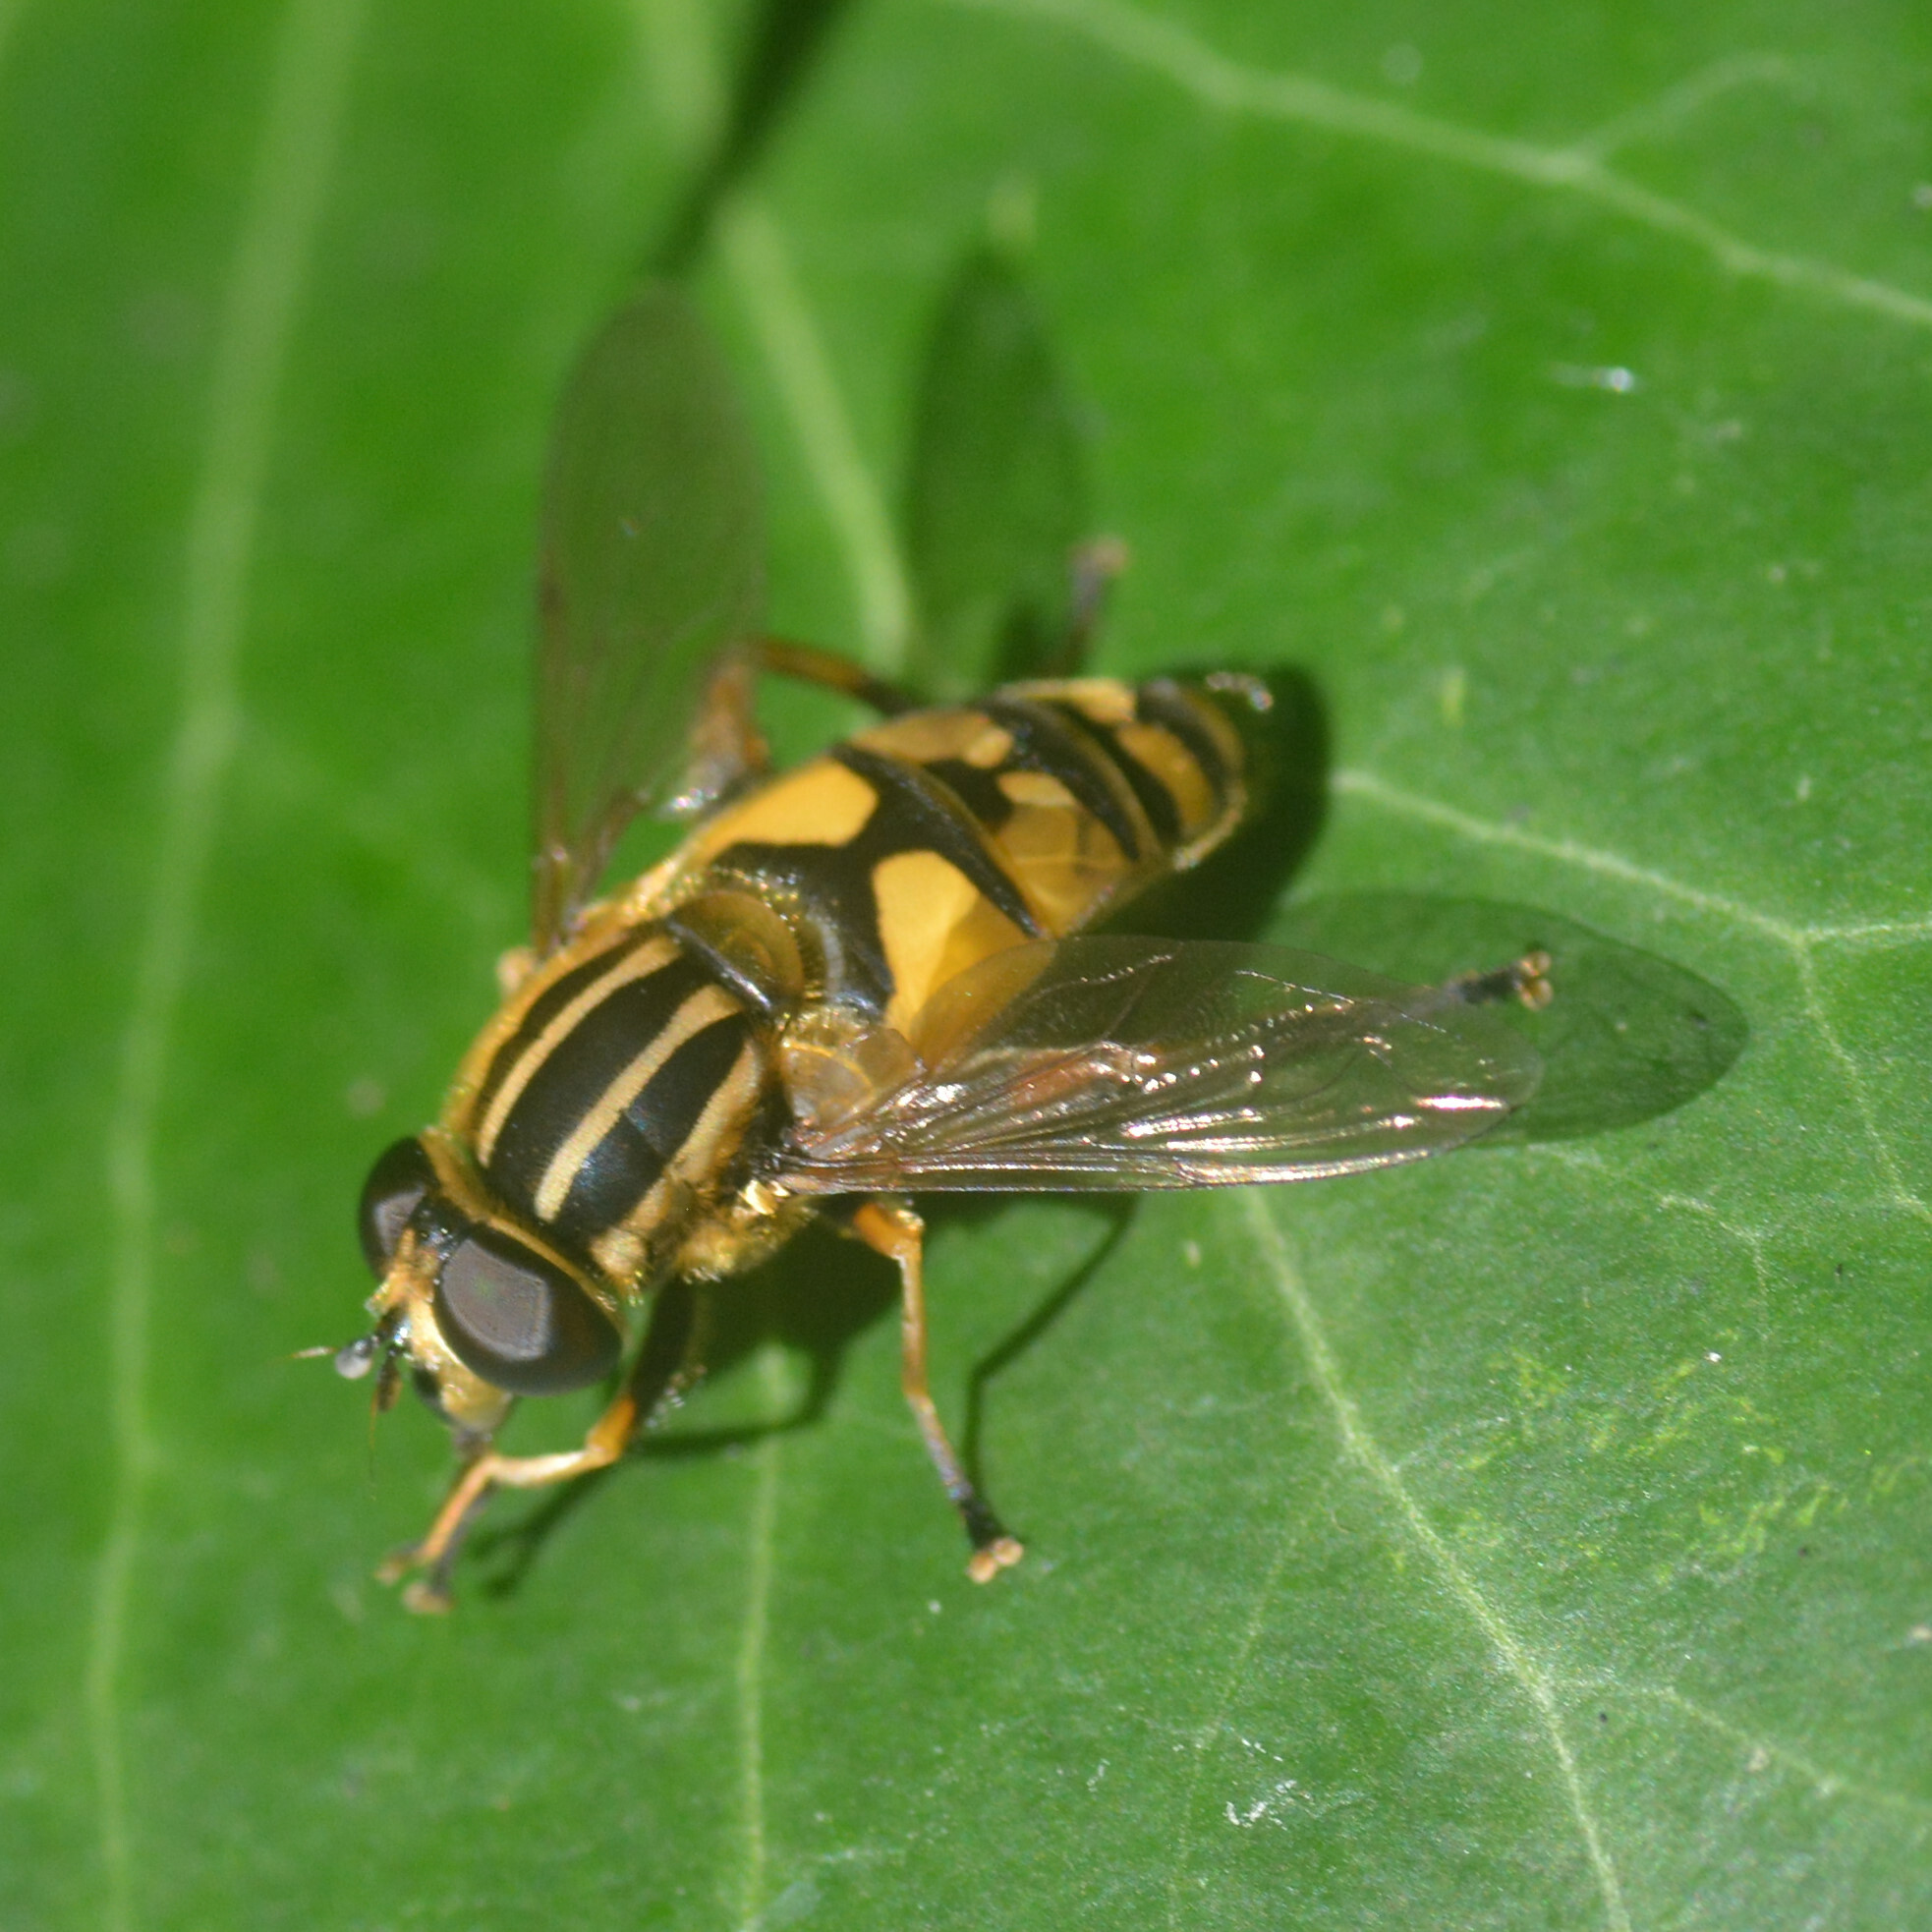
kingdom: Animalia
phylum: Arthropoda
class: Insecta
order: Diptera
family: Syrphidae
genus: Helophilus
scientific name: Helophilus pendulus
